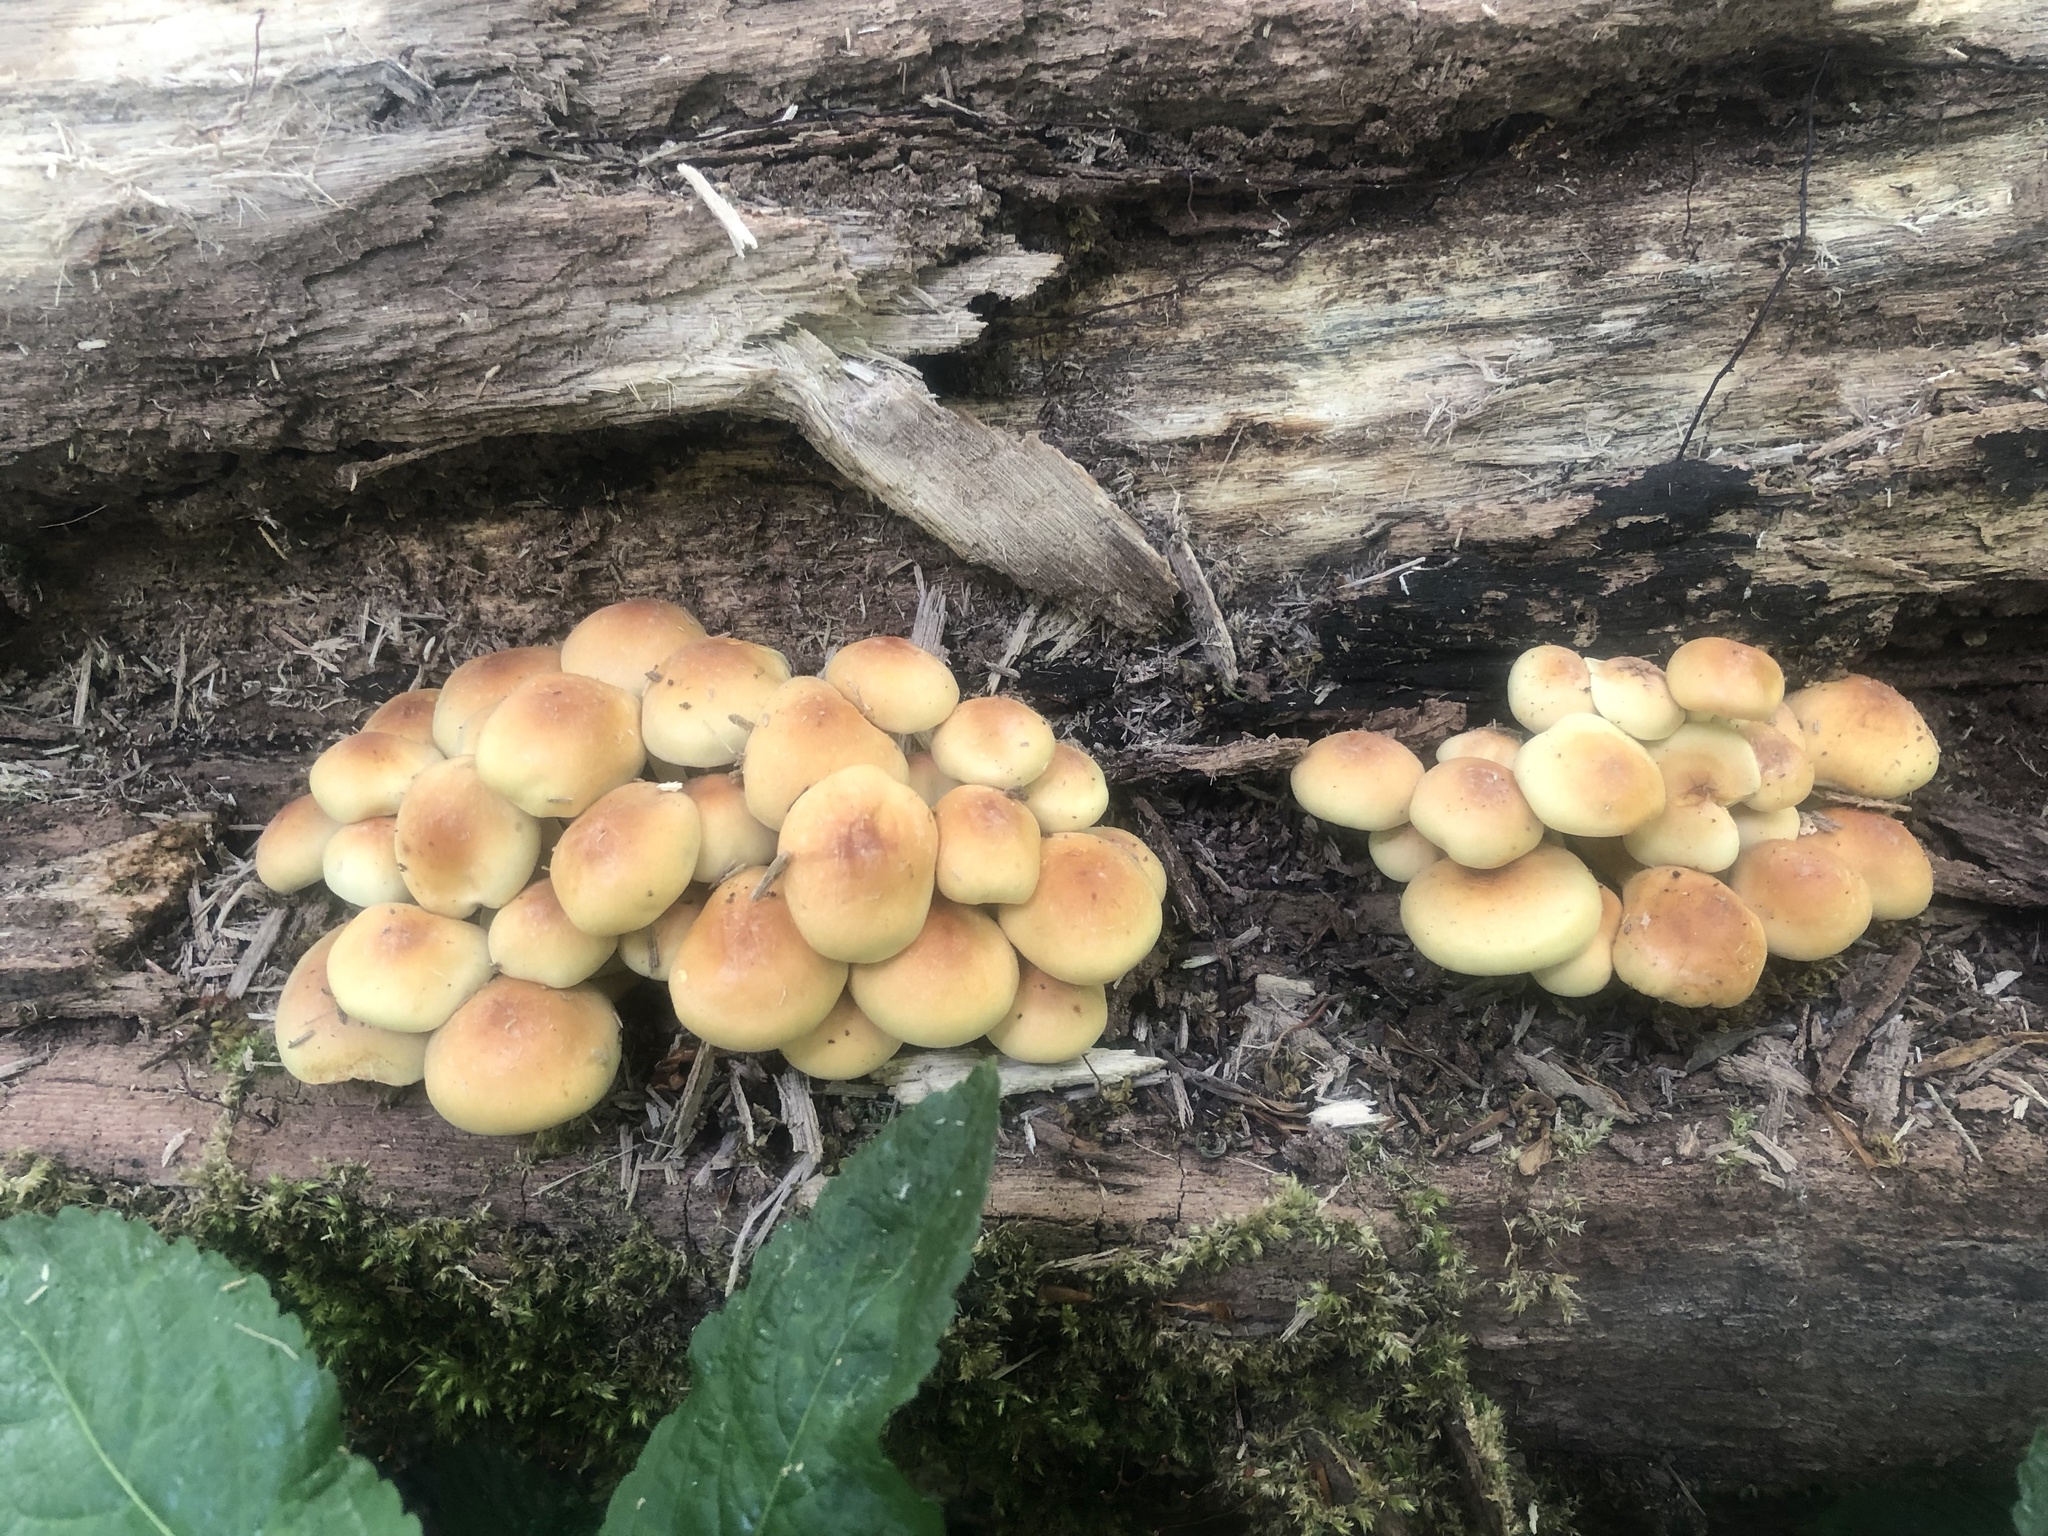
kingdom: Fungi
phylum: Basidiomycota
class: Agaricomycetes
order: Agaricales
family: Strophariaceae
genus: Hypholoma
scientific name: Hypholoma fasciculare
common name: Sulphur tuft
